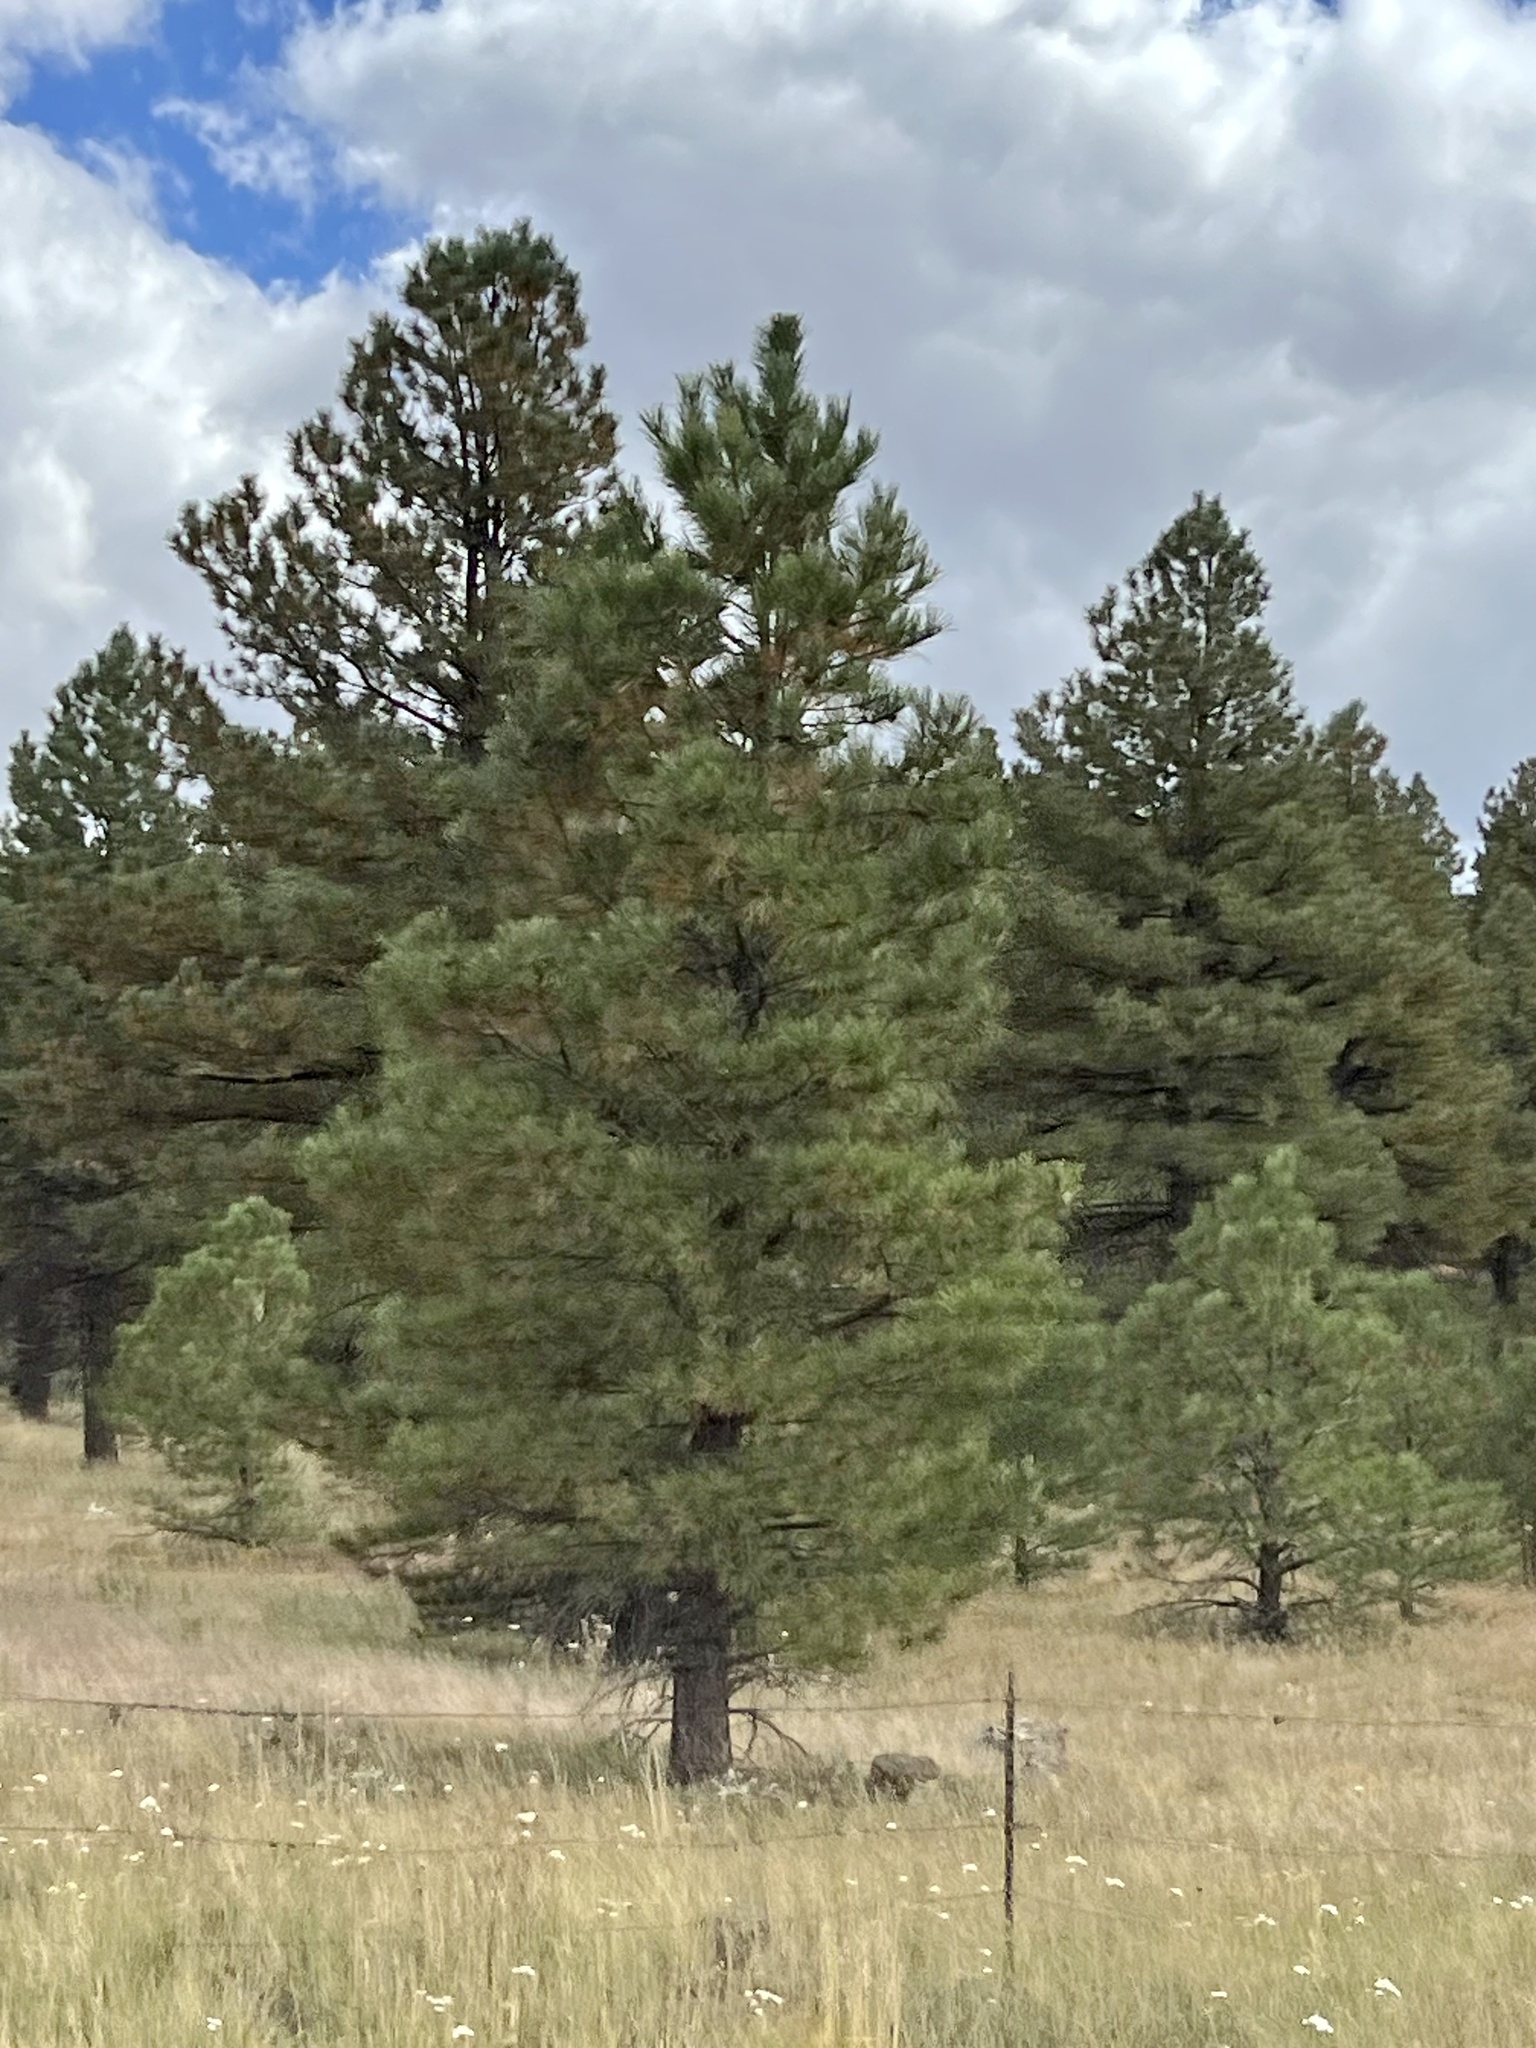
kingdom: Plantae
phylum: Tracheophyta
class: Pinopsida
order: Pinales
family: Pinaceae
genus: Pinus
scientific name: Pinus ponderosa
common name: Western yellow-pine
